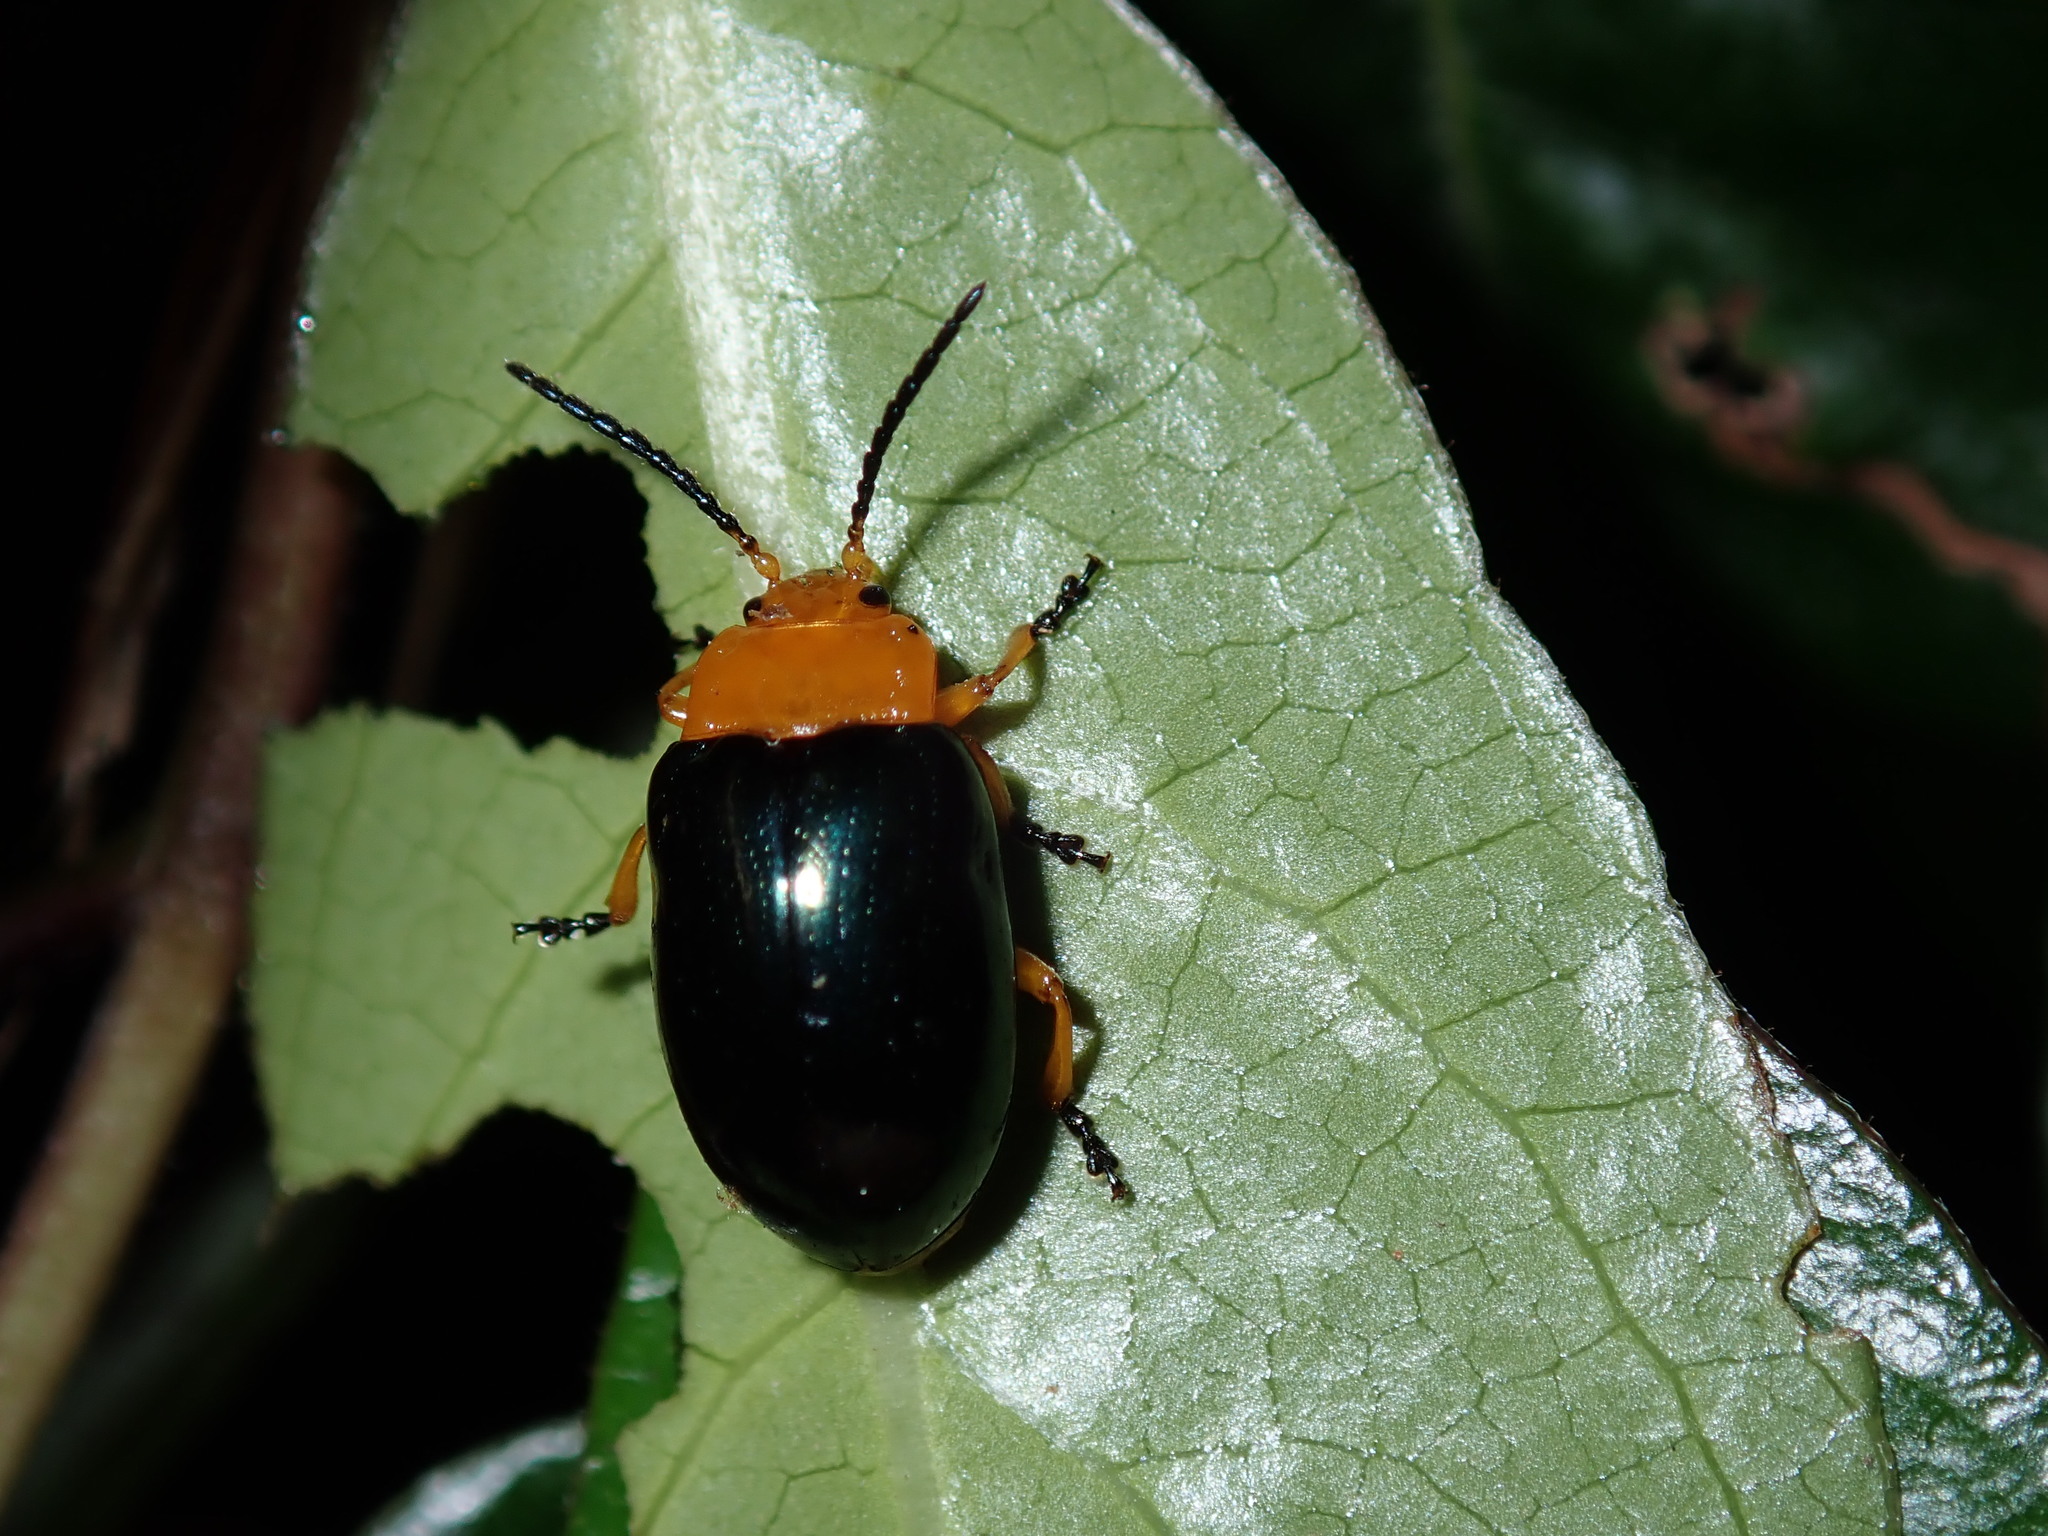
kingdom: Animalia
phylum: Arthropoda
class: Insecta
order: Coleoptera
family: Chrysomelidae
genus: Lamprolina
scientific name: Lamprolina
